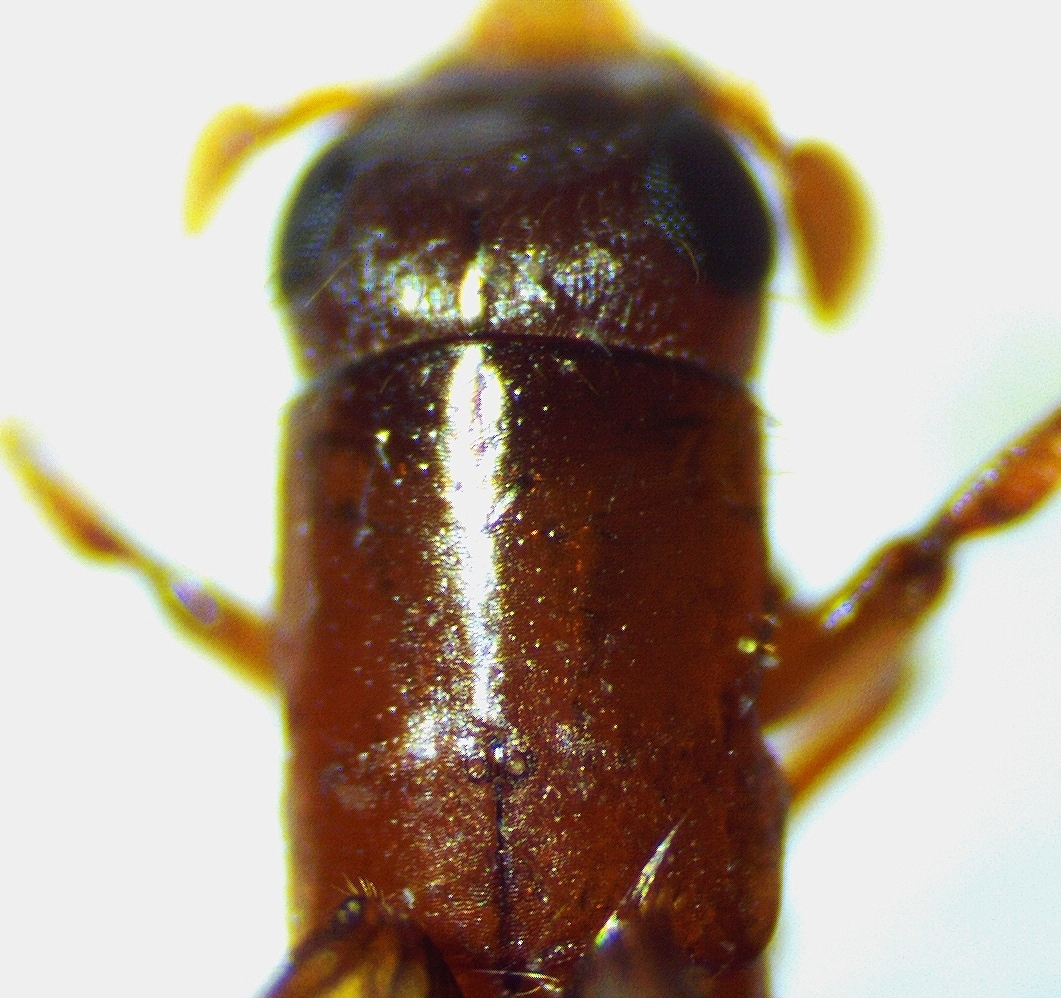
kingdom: Animalia
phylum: Arthropoda
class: Insecta
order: Coleoptera
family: Curculionidae
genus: Euplatypus
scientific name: Euplatypus compositus
